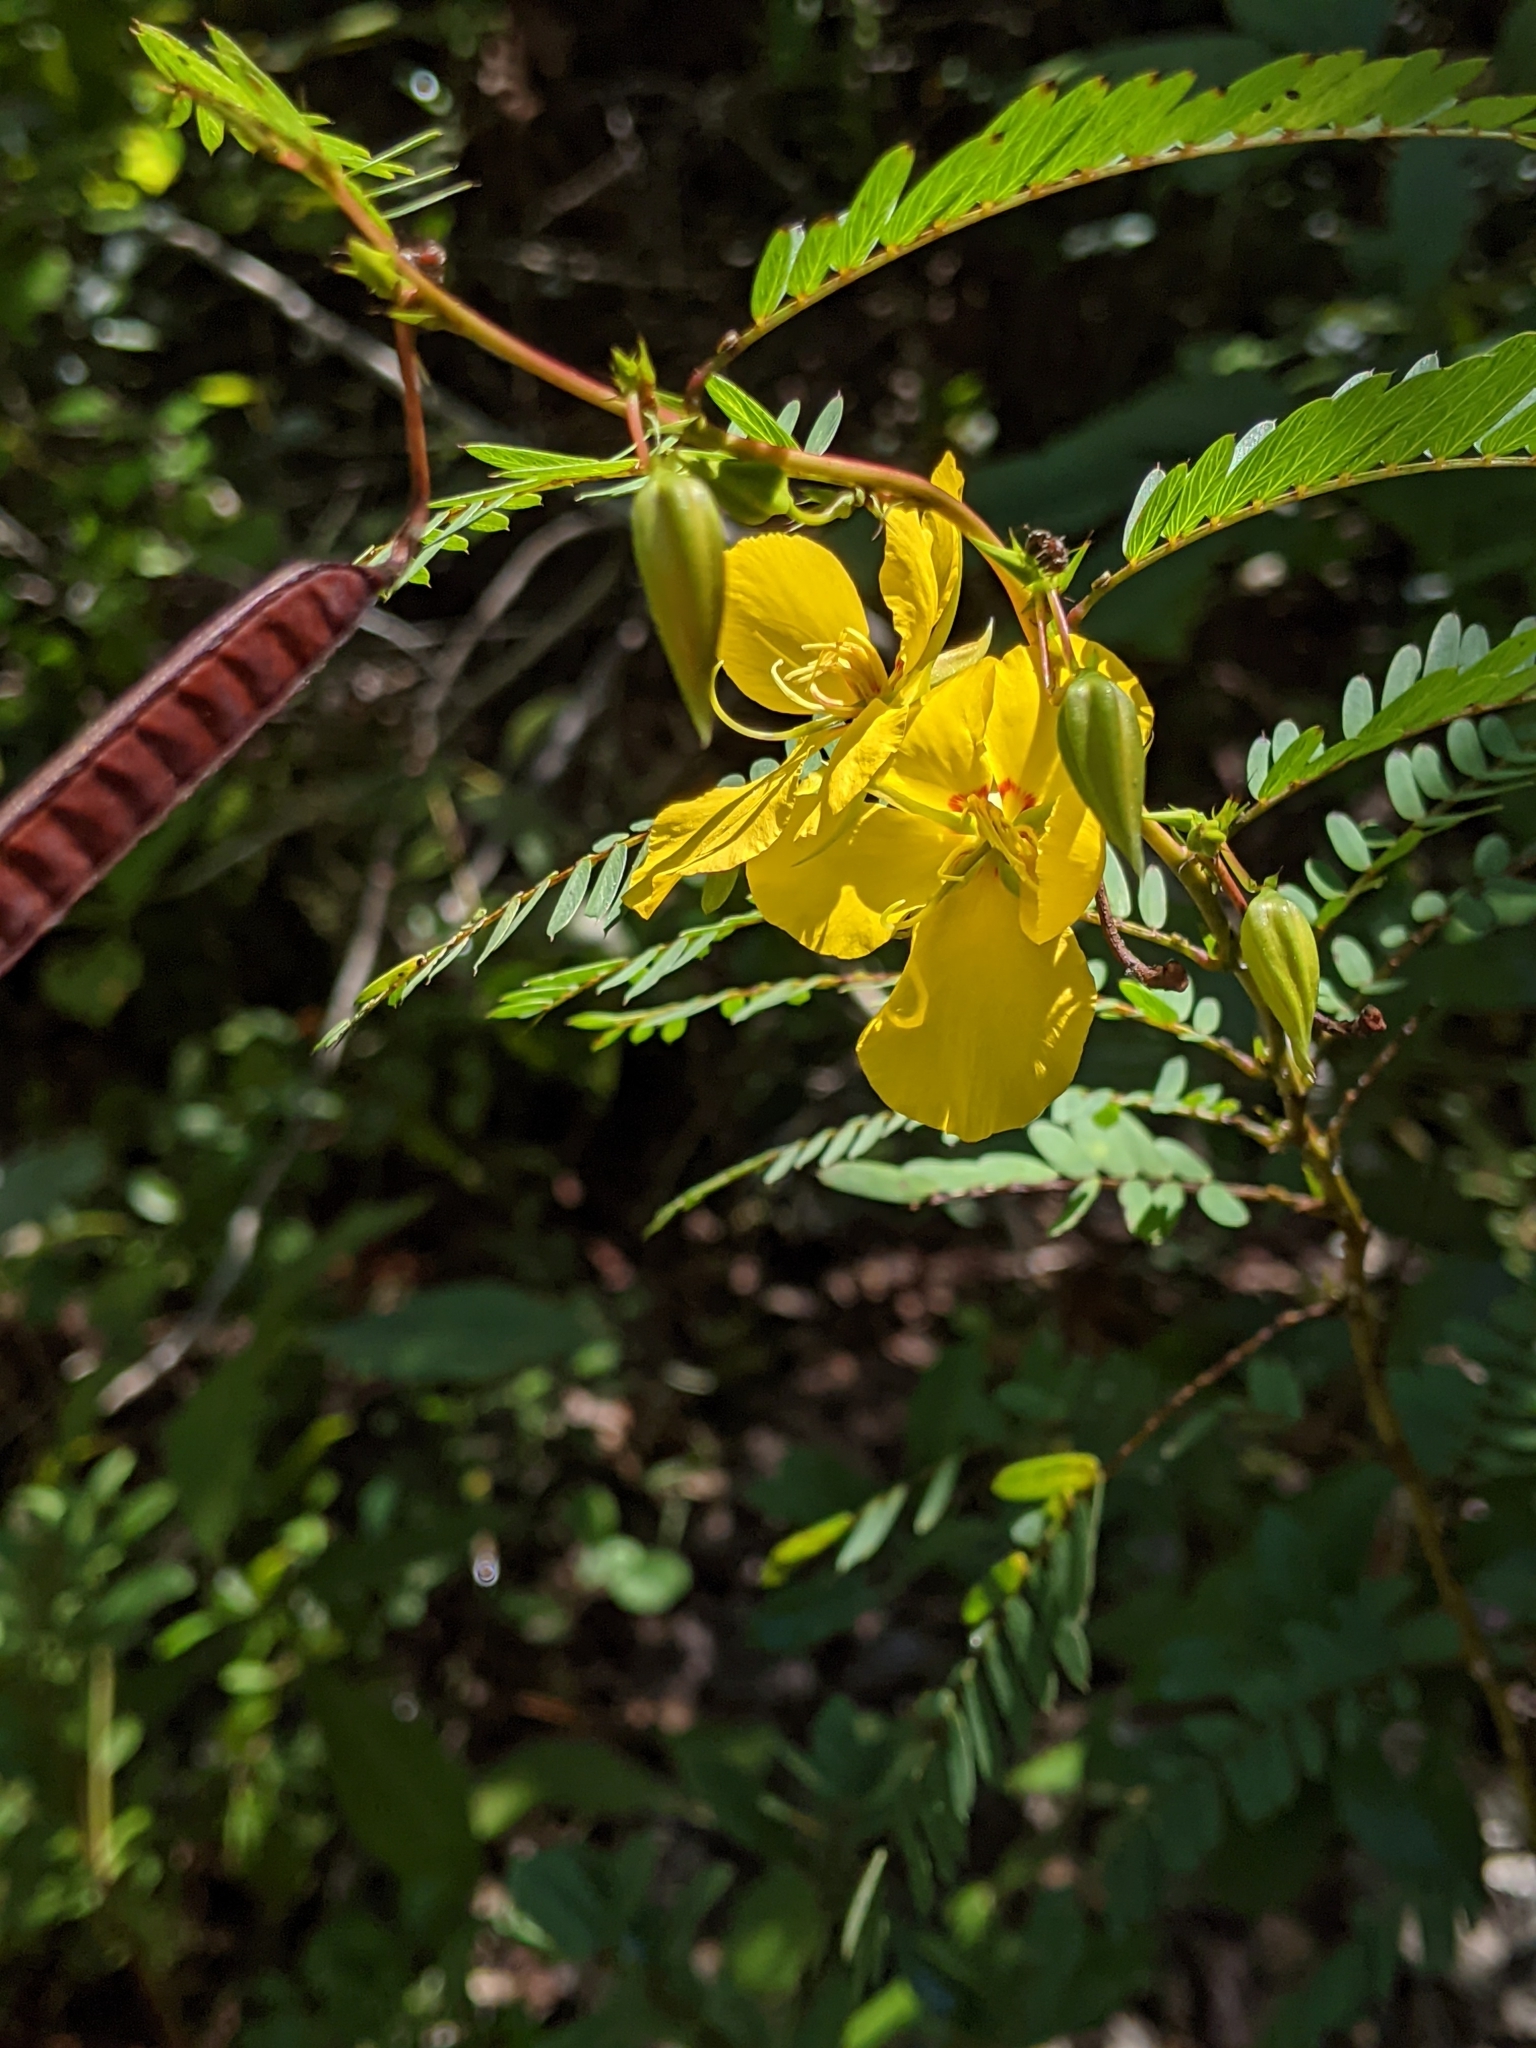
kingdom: Plantae
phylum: Tracheophyta
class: Magnoliopsida
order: Fabales
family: Fabaceae
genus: Chamaecrista
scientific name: Chamaecrista fasciculata
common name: Golden cassia
